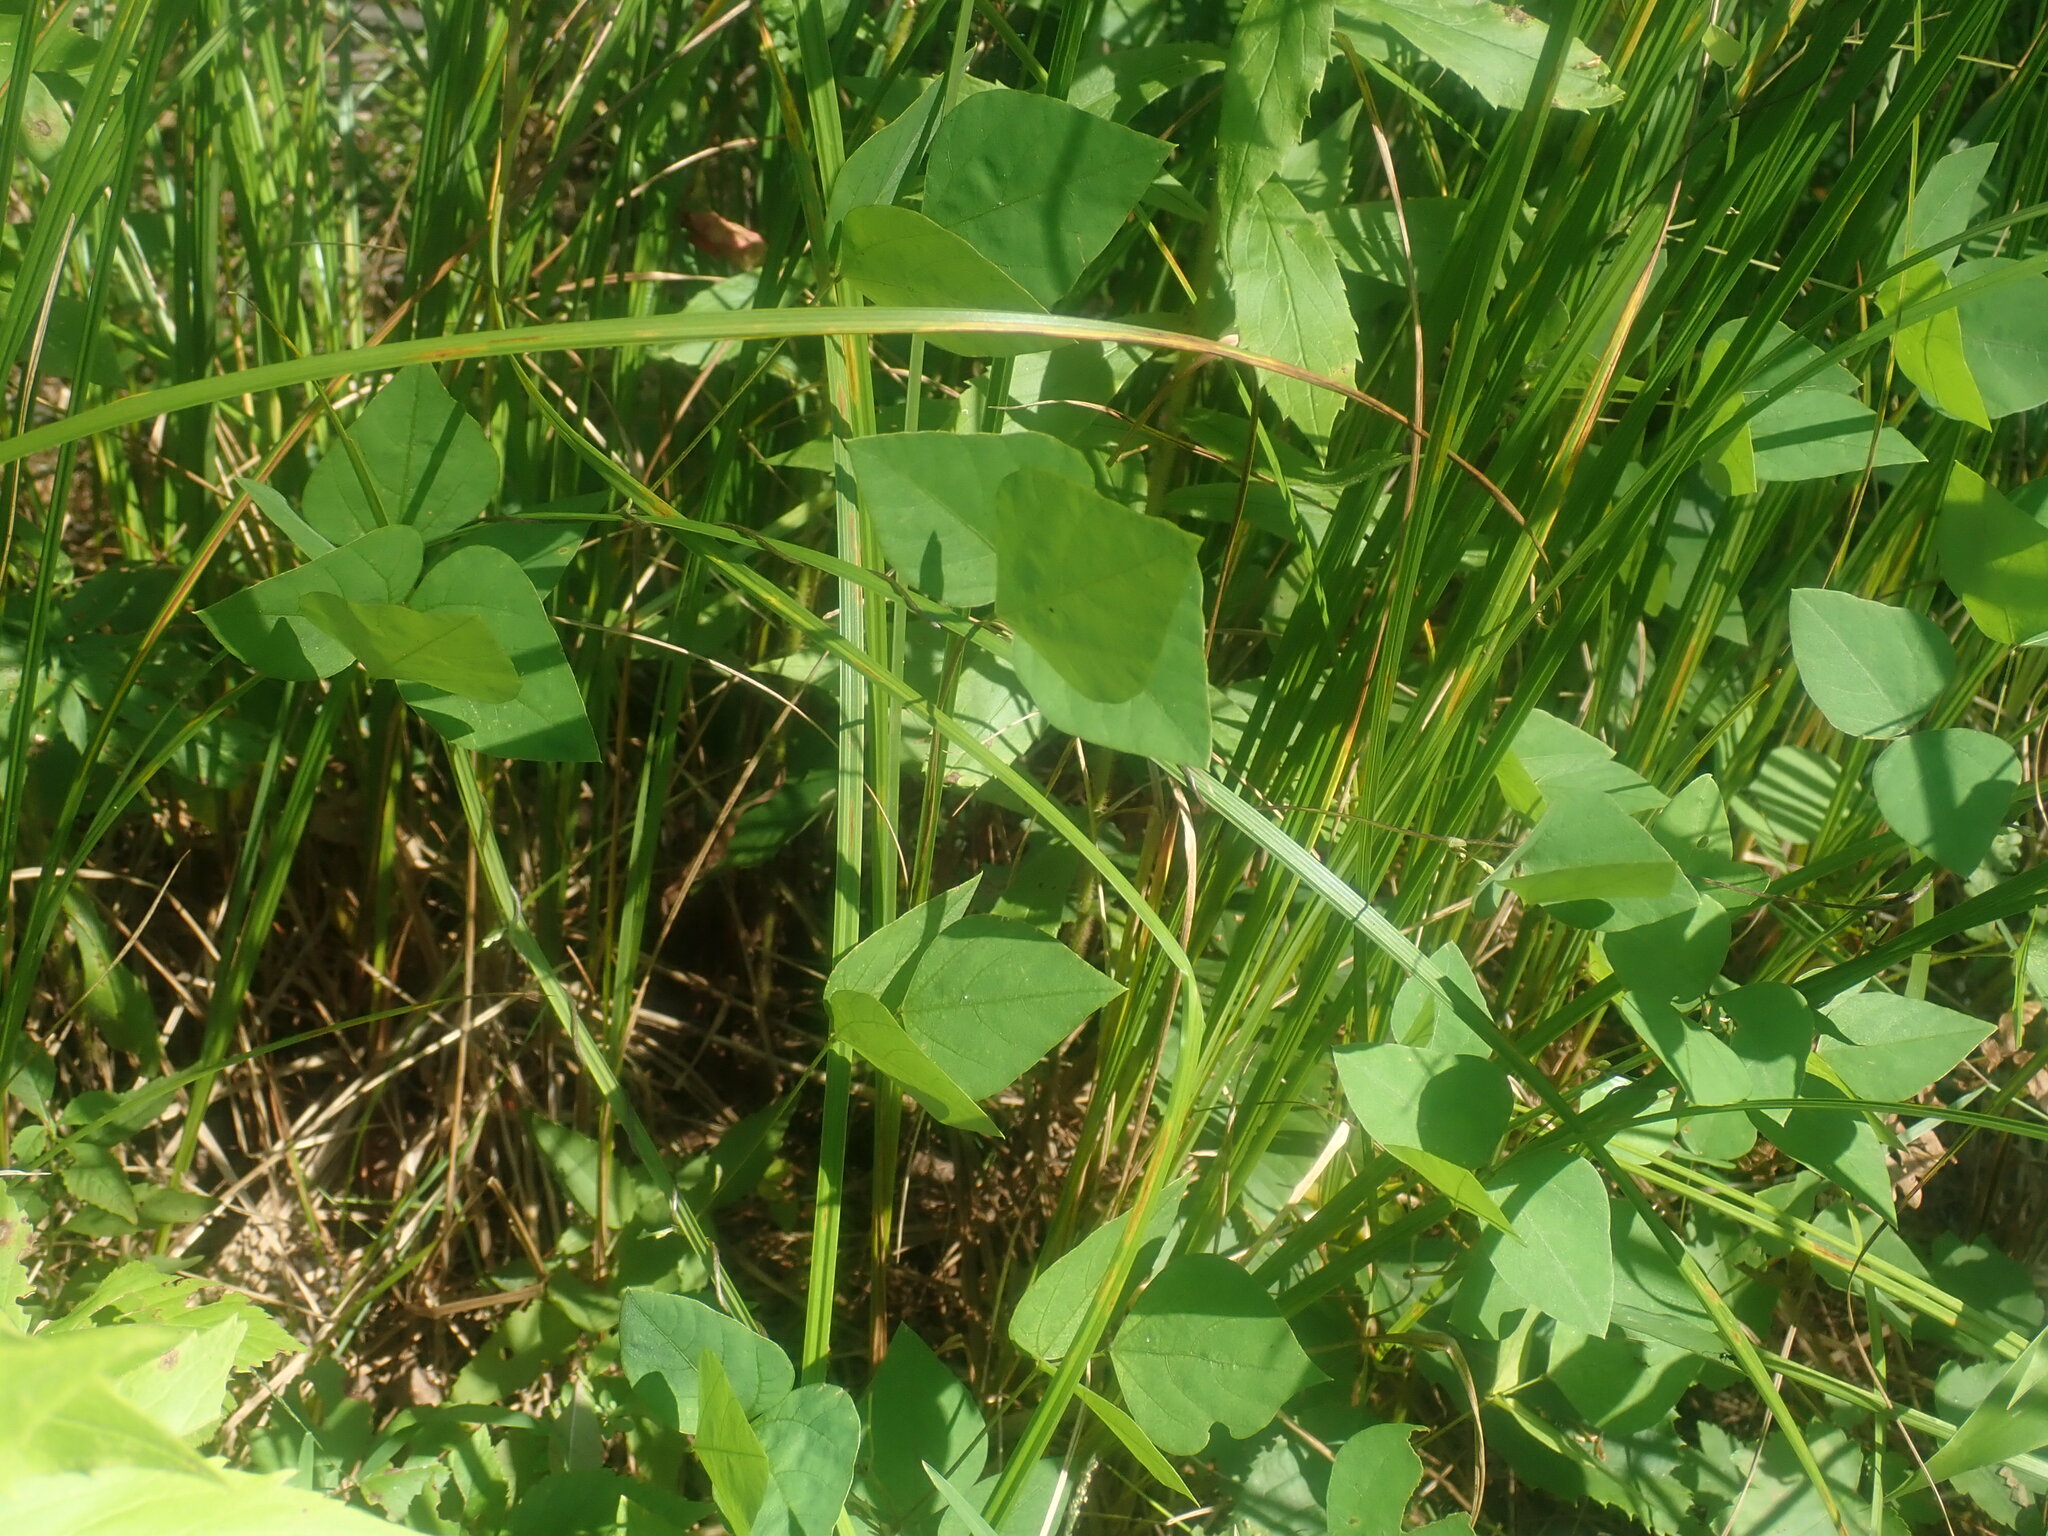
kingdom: Plantae
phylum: Tracheophyta
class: Magnoliopsida
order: Fabales
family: Fabaceae
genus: Amphicarpaea
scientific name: Amphicarpaea bracteata
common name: American hog peanut
